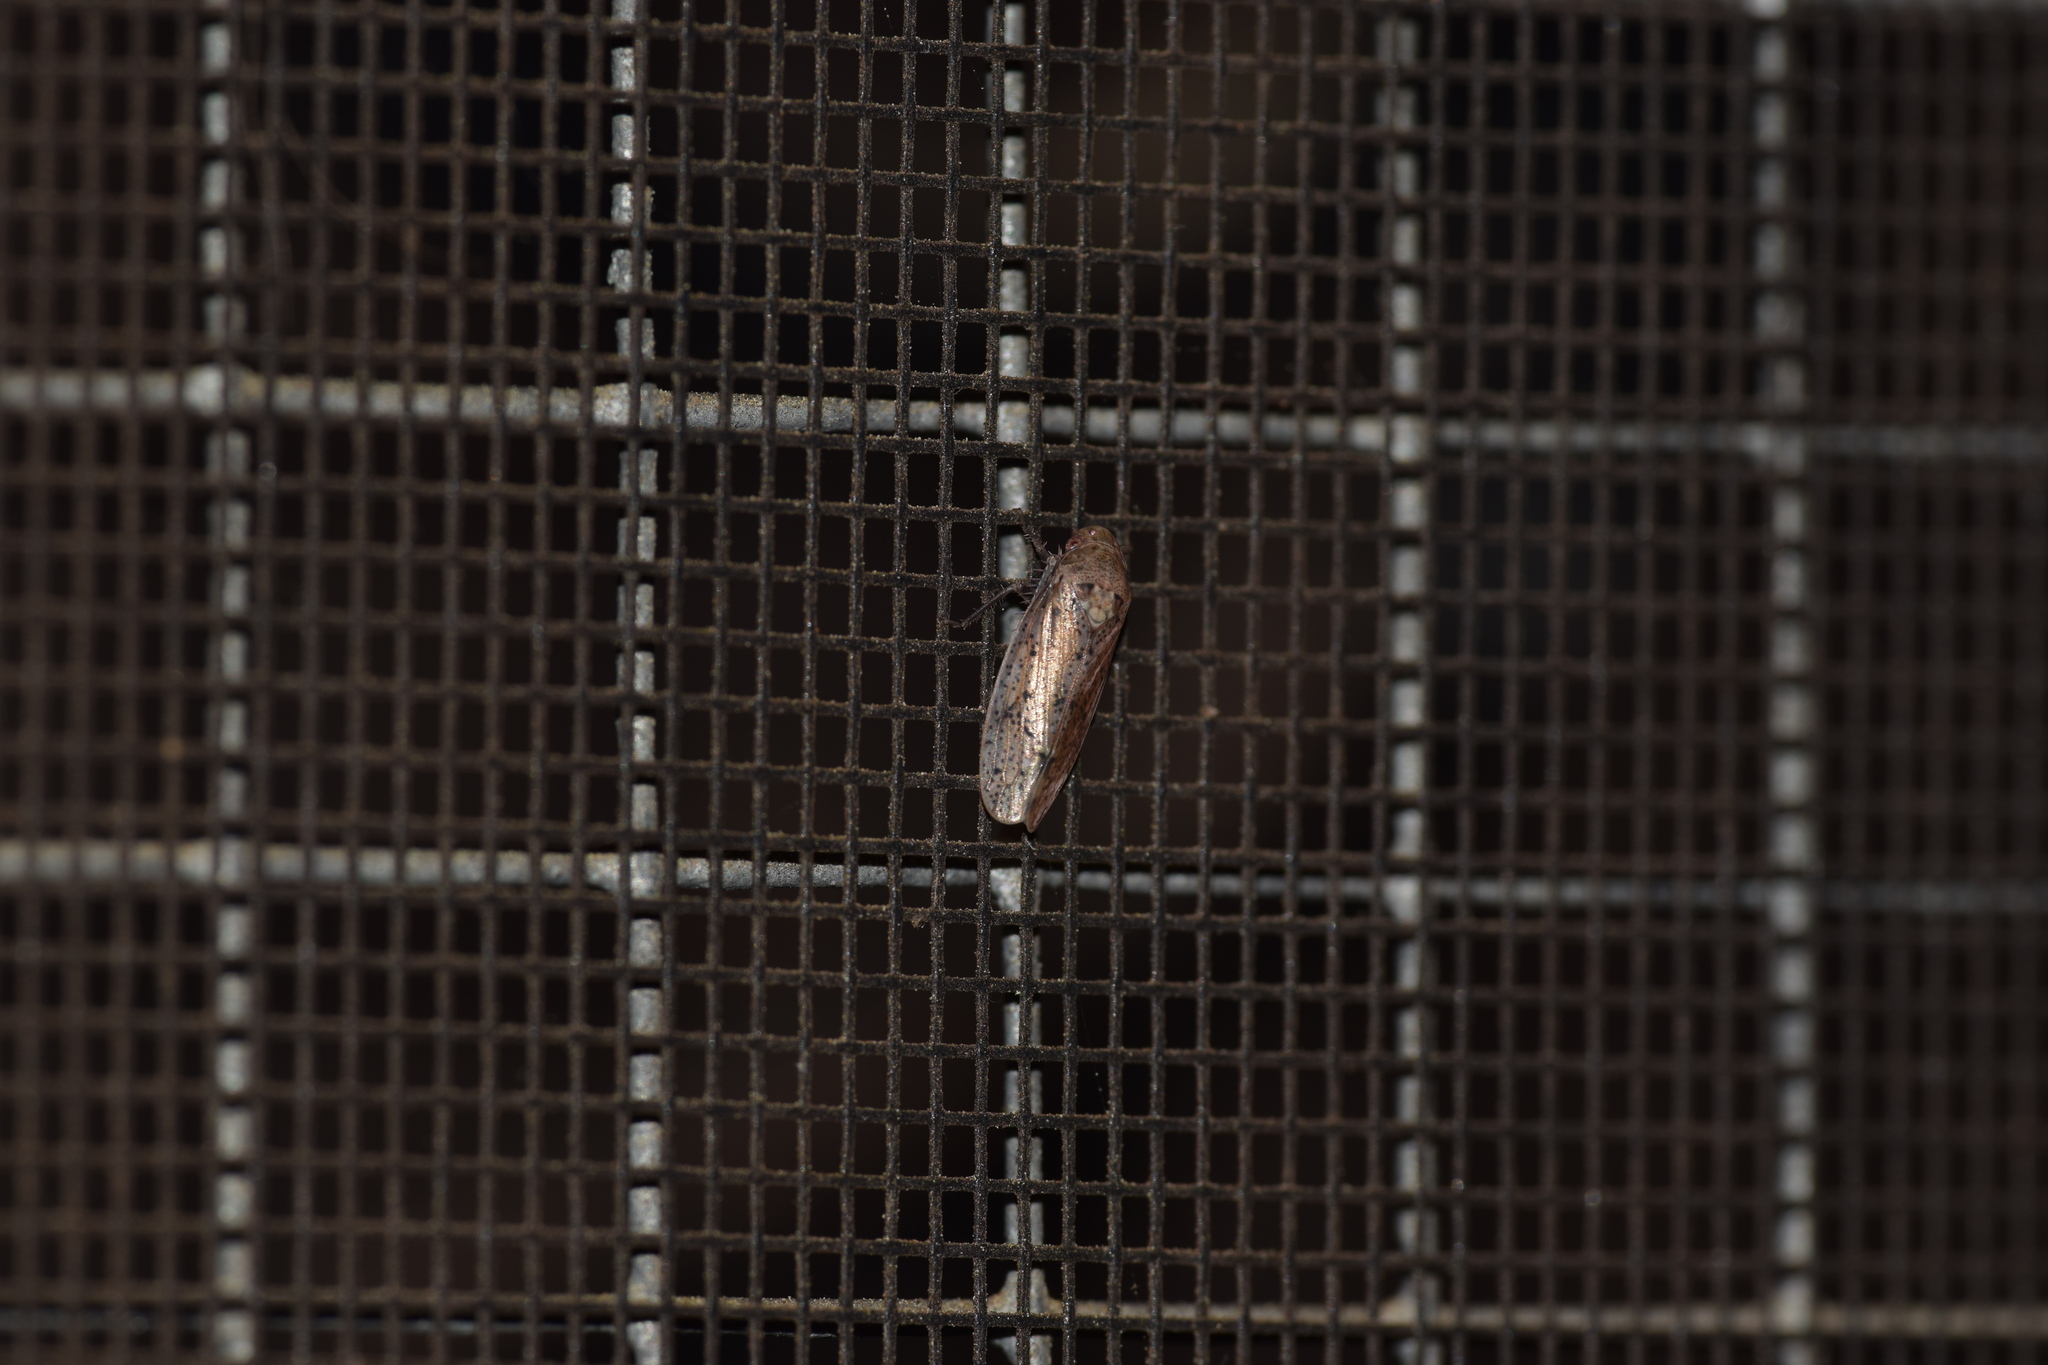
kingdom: Animalia
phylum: Arthropoda
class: Insecta
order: Hemiptera
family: Cicadellidae
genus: Ponana
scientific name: Ponana puncticollis
